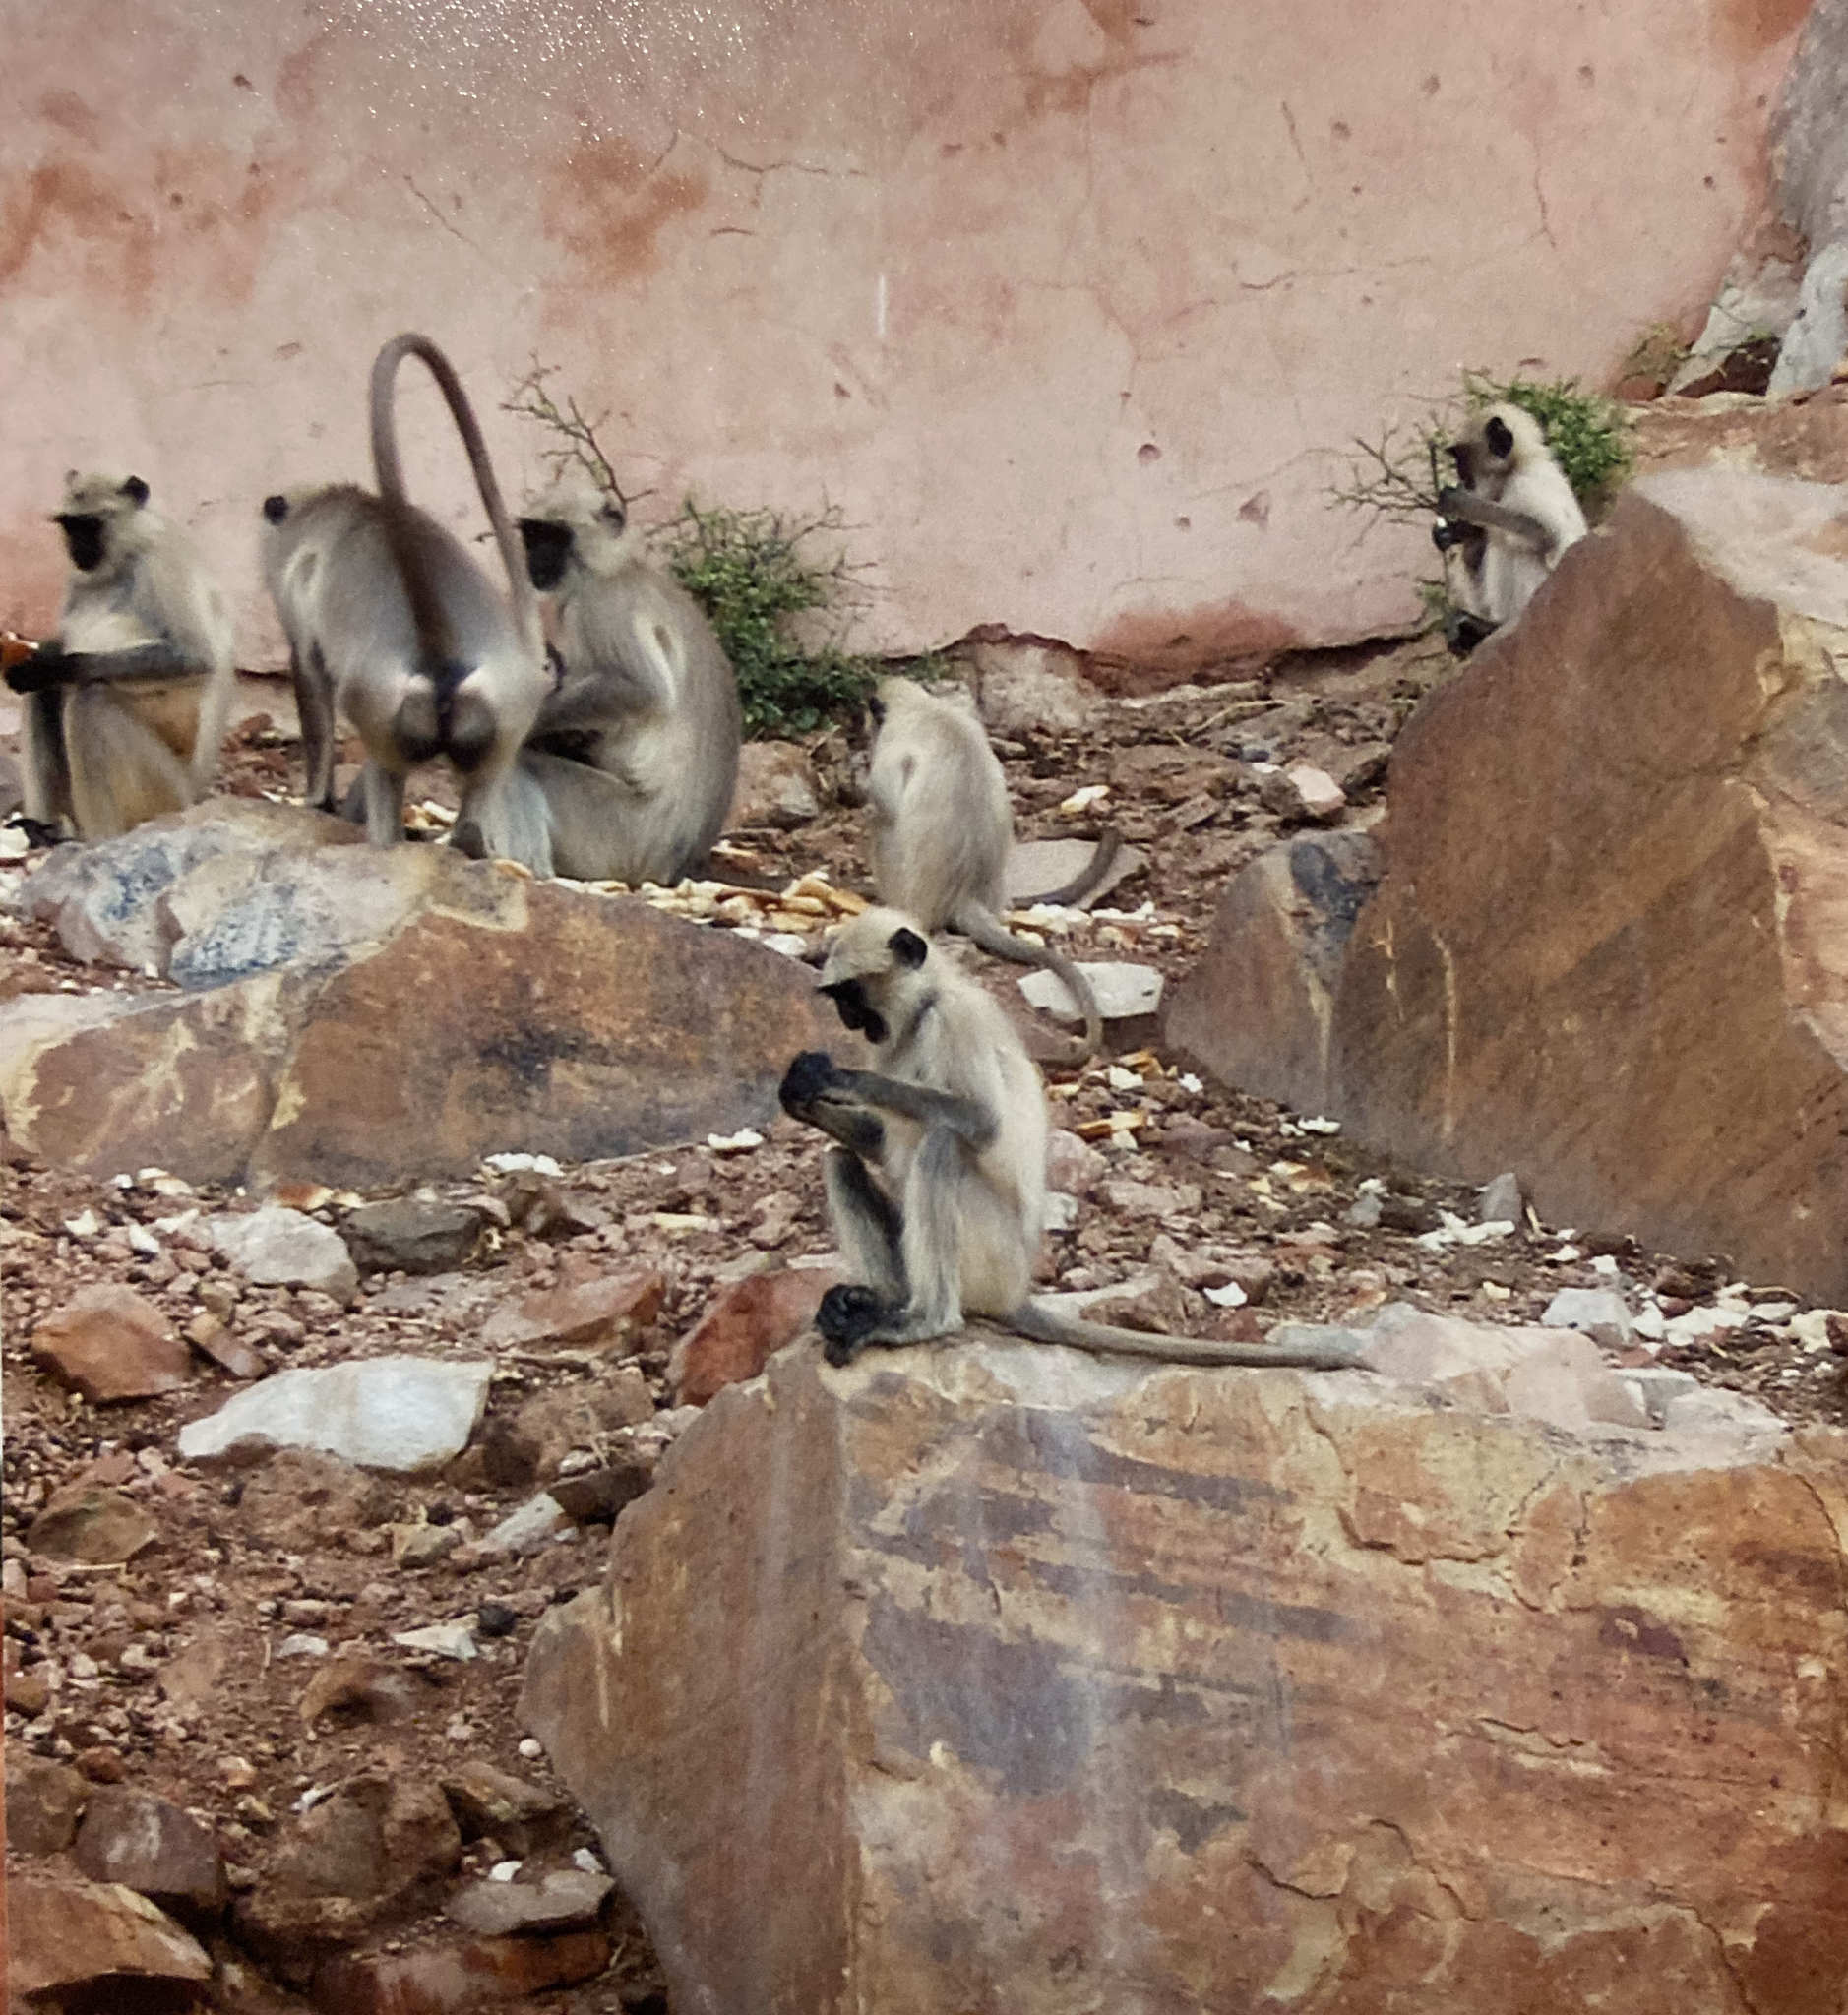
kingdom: Animalia
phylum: Chordata
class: Mammalia
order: Primates
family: Cercopithecidae
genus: Semnopithecus
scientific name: Semnopithecus entellus
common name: Northern plains gray langur
